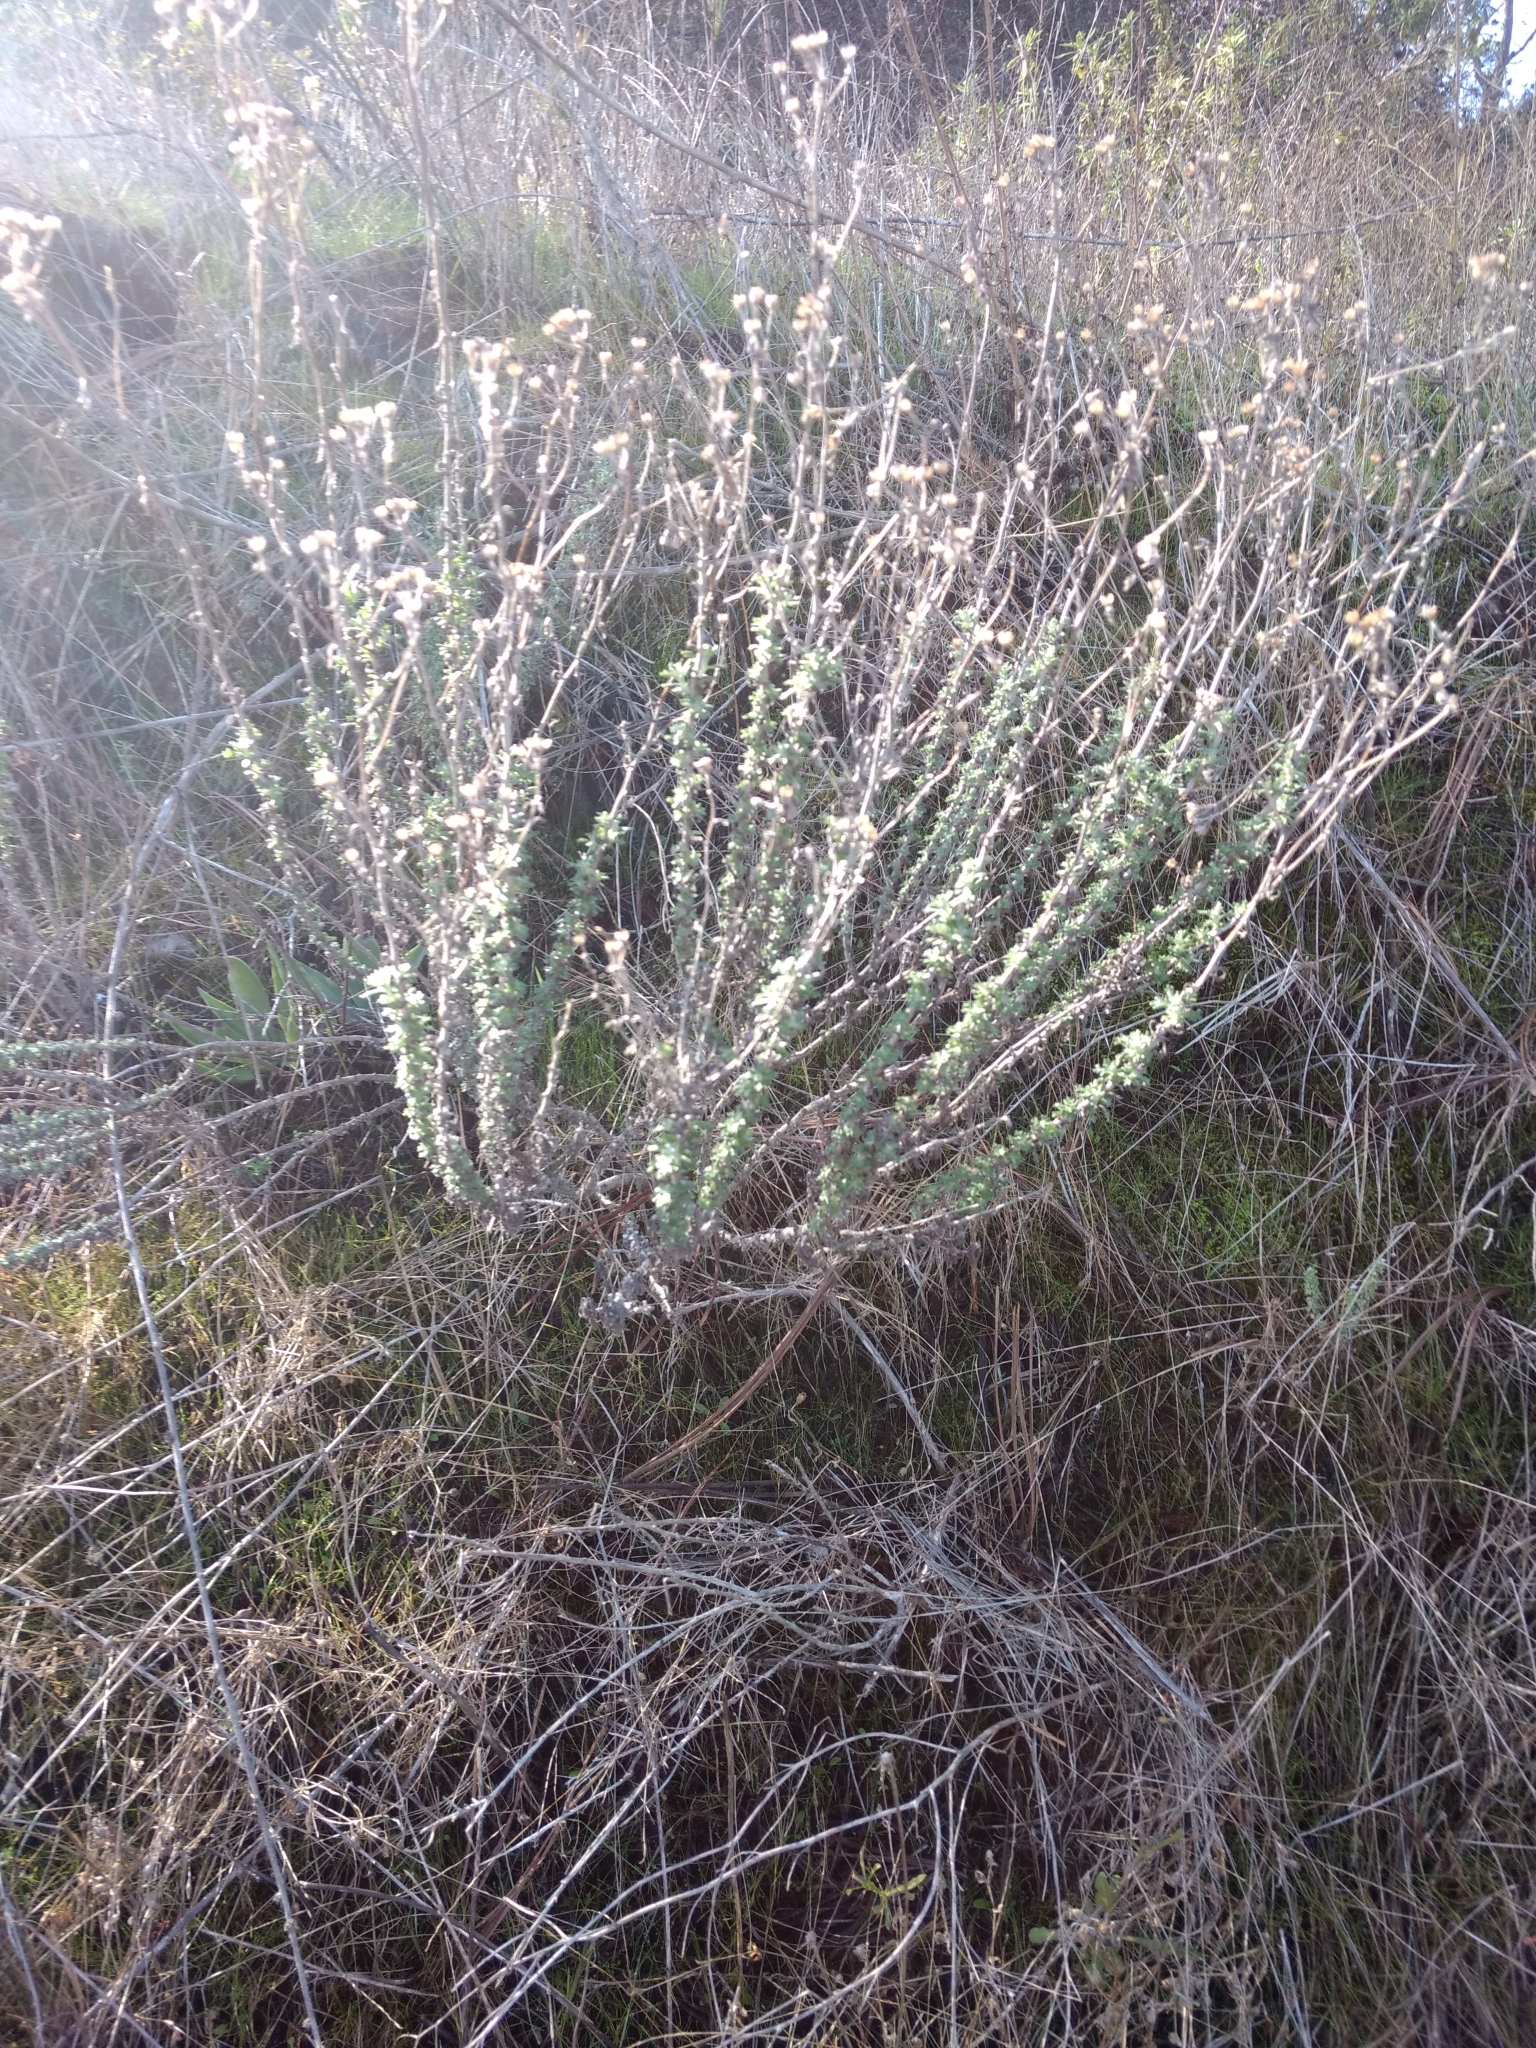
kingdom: Plantae
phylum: Tracheophyta
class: Magnoliopsida
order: Asterales
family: Asteraceae
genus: Eriophyllum
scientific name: Eriophyllum confertiflorum
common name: Golden-yarrow
